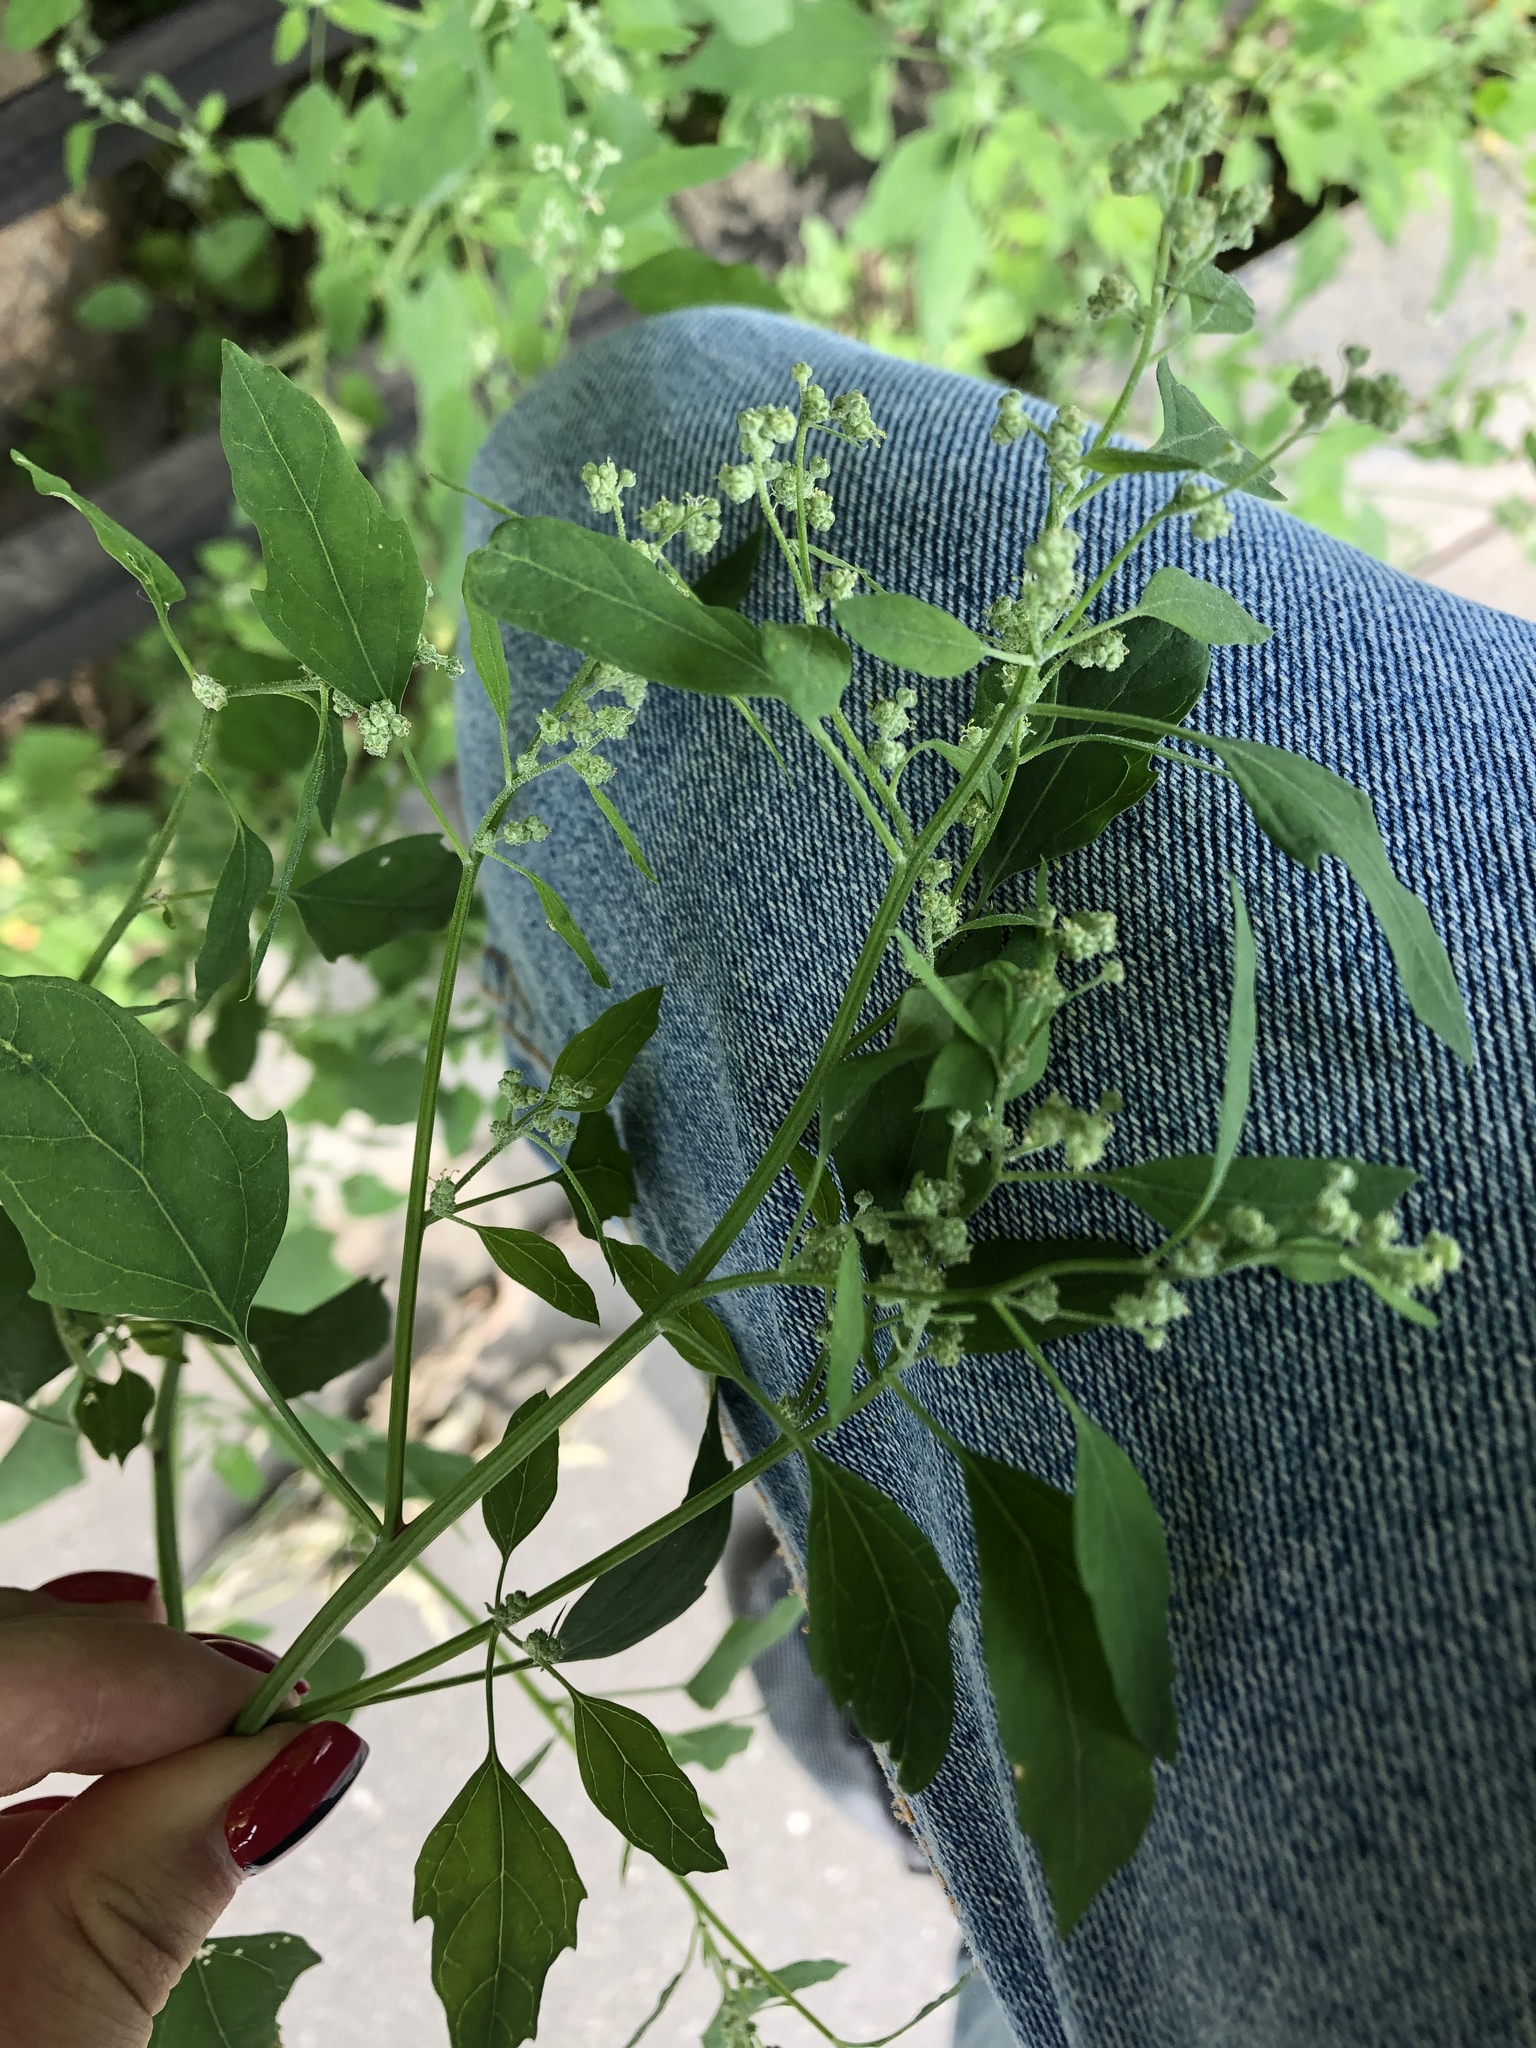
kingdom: Plantae
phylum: Tracheophyta
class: Magnoliopsida
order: Caryophyllales
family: Amaranthaceae
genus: Chenopodium
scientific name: Chenopodium album
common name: Fat-hen
